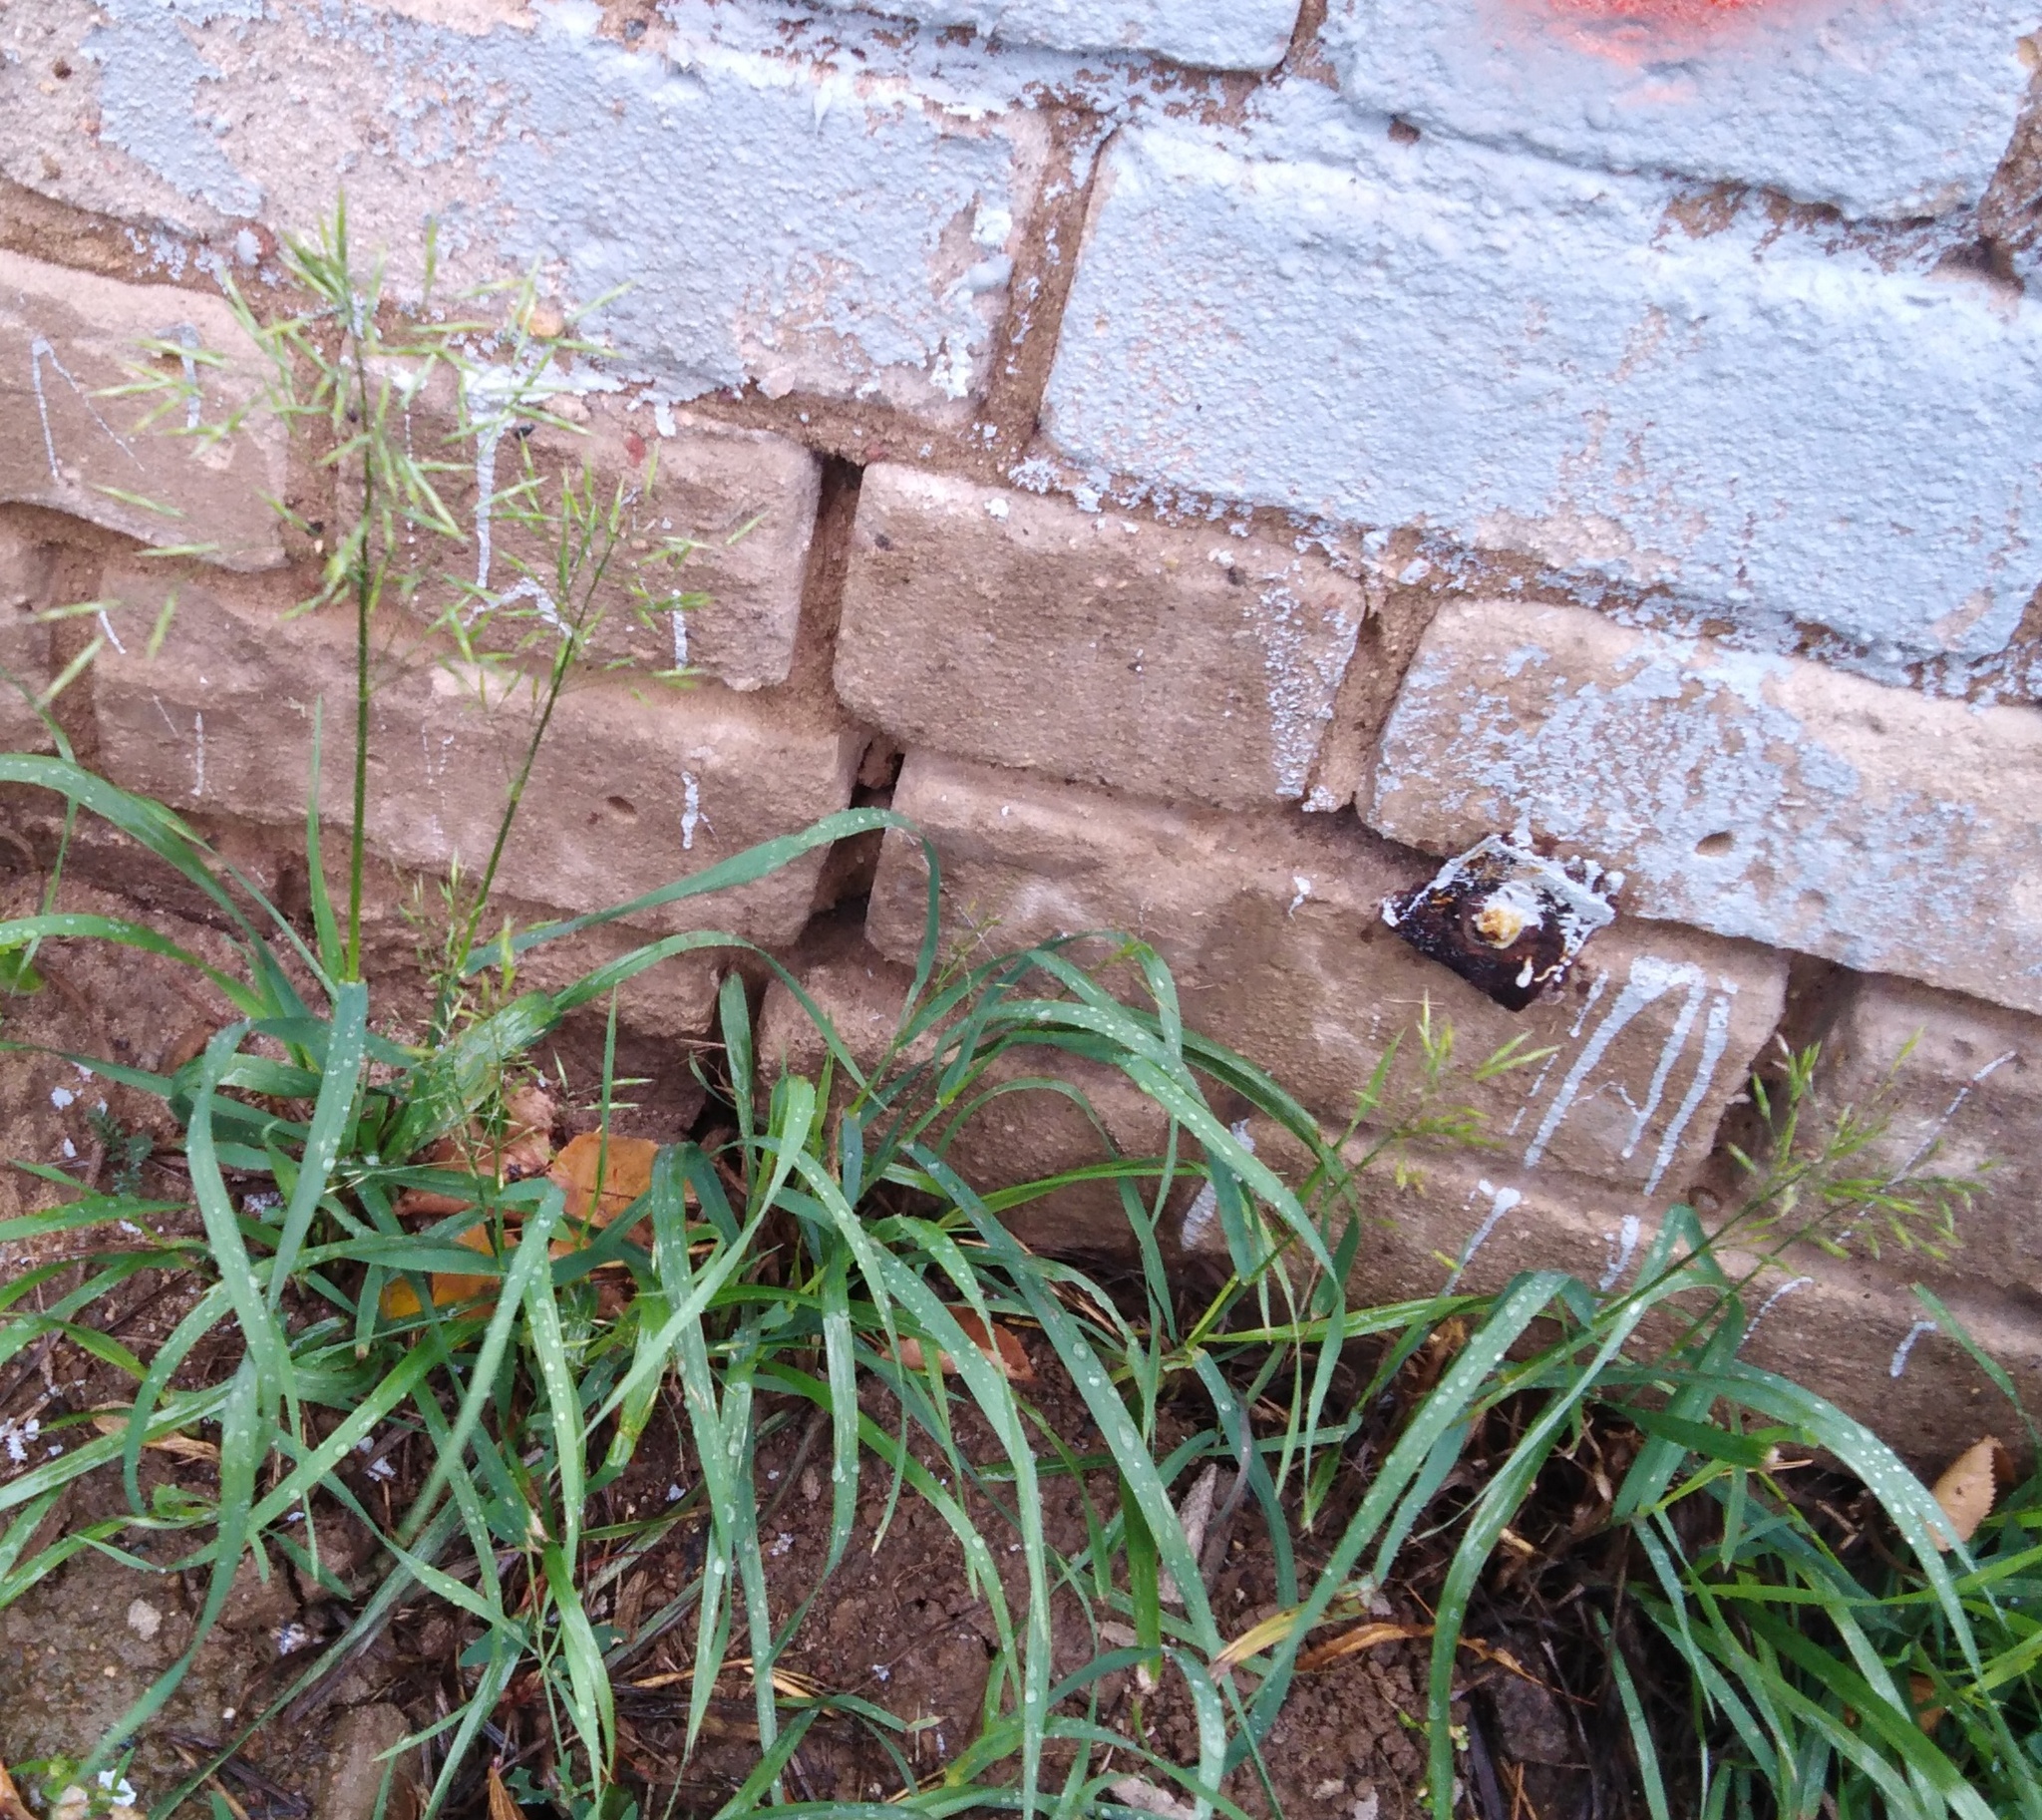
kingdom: Plantae
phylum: Tracheophyta
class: Liliopsida
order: Poales
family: Poaceae
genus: Bromus
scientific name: Bromus inermis
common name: Smooth brome
